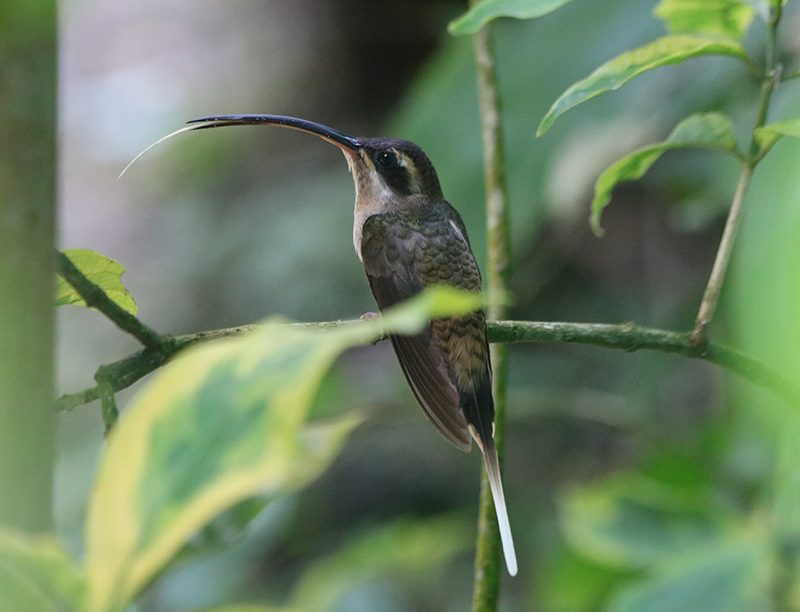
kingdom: Animalia
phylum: Chordata
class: Aves
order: Apodiformes
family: Trochilidae
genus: Phaethornis
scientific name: Phaethornis longirostris
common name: Long-billed hermit
